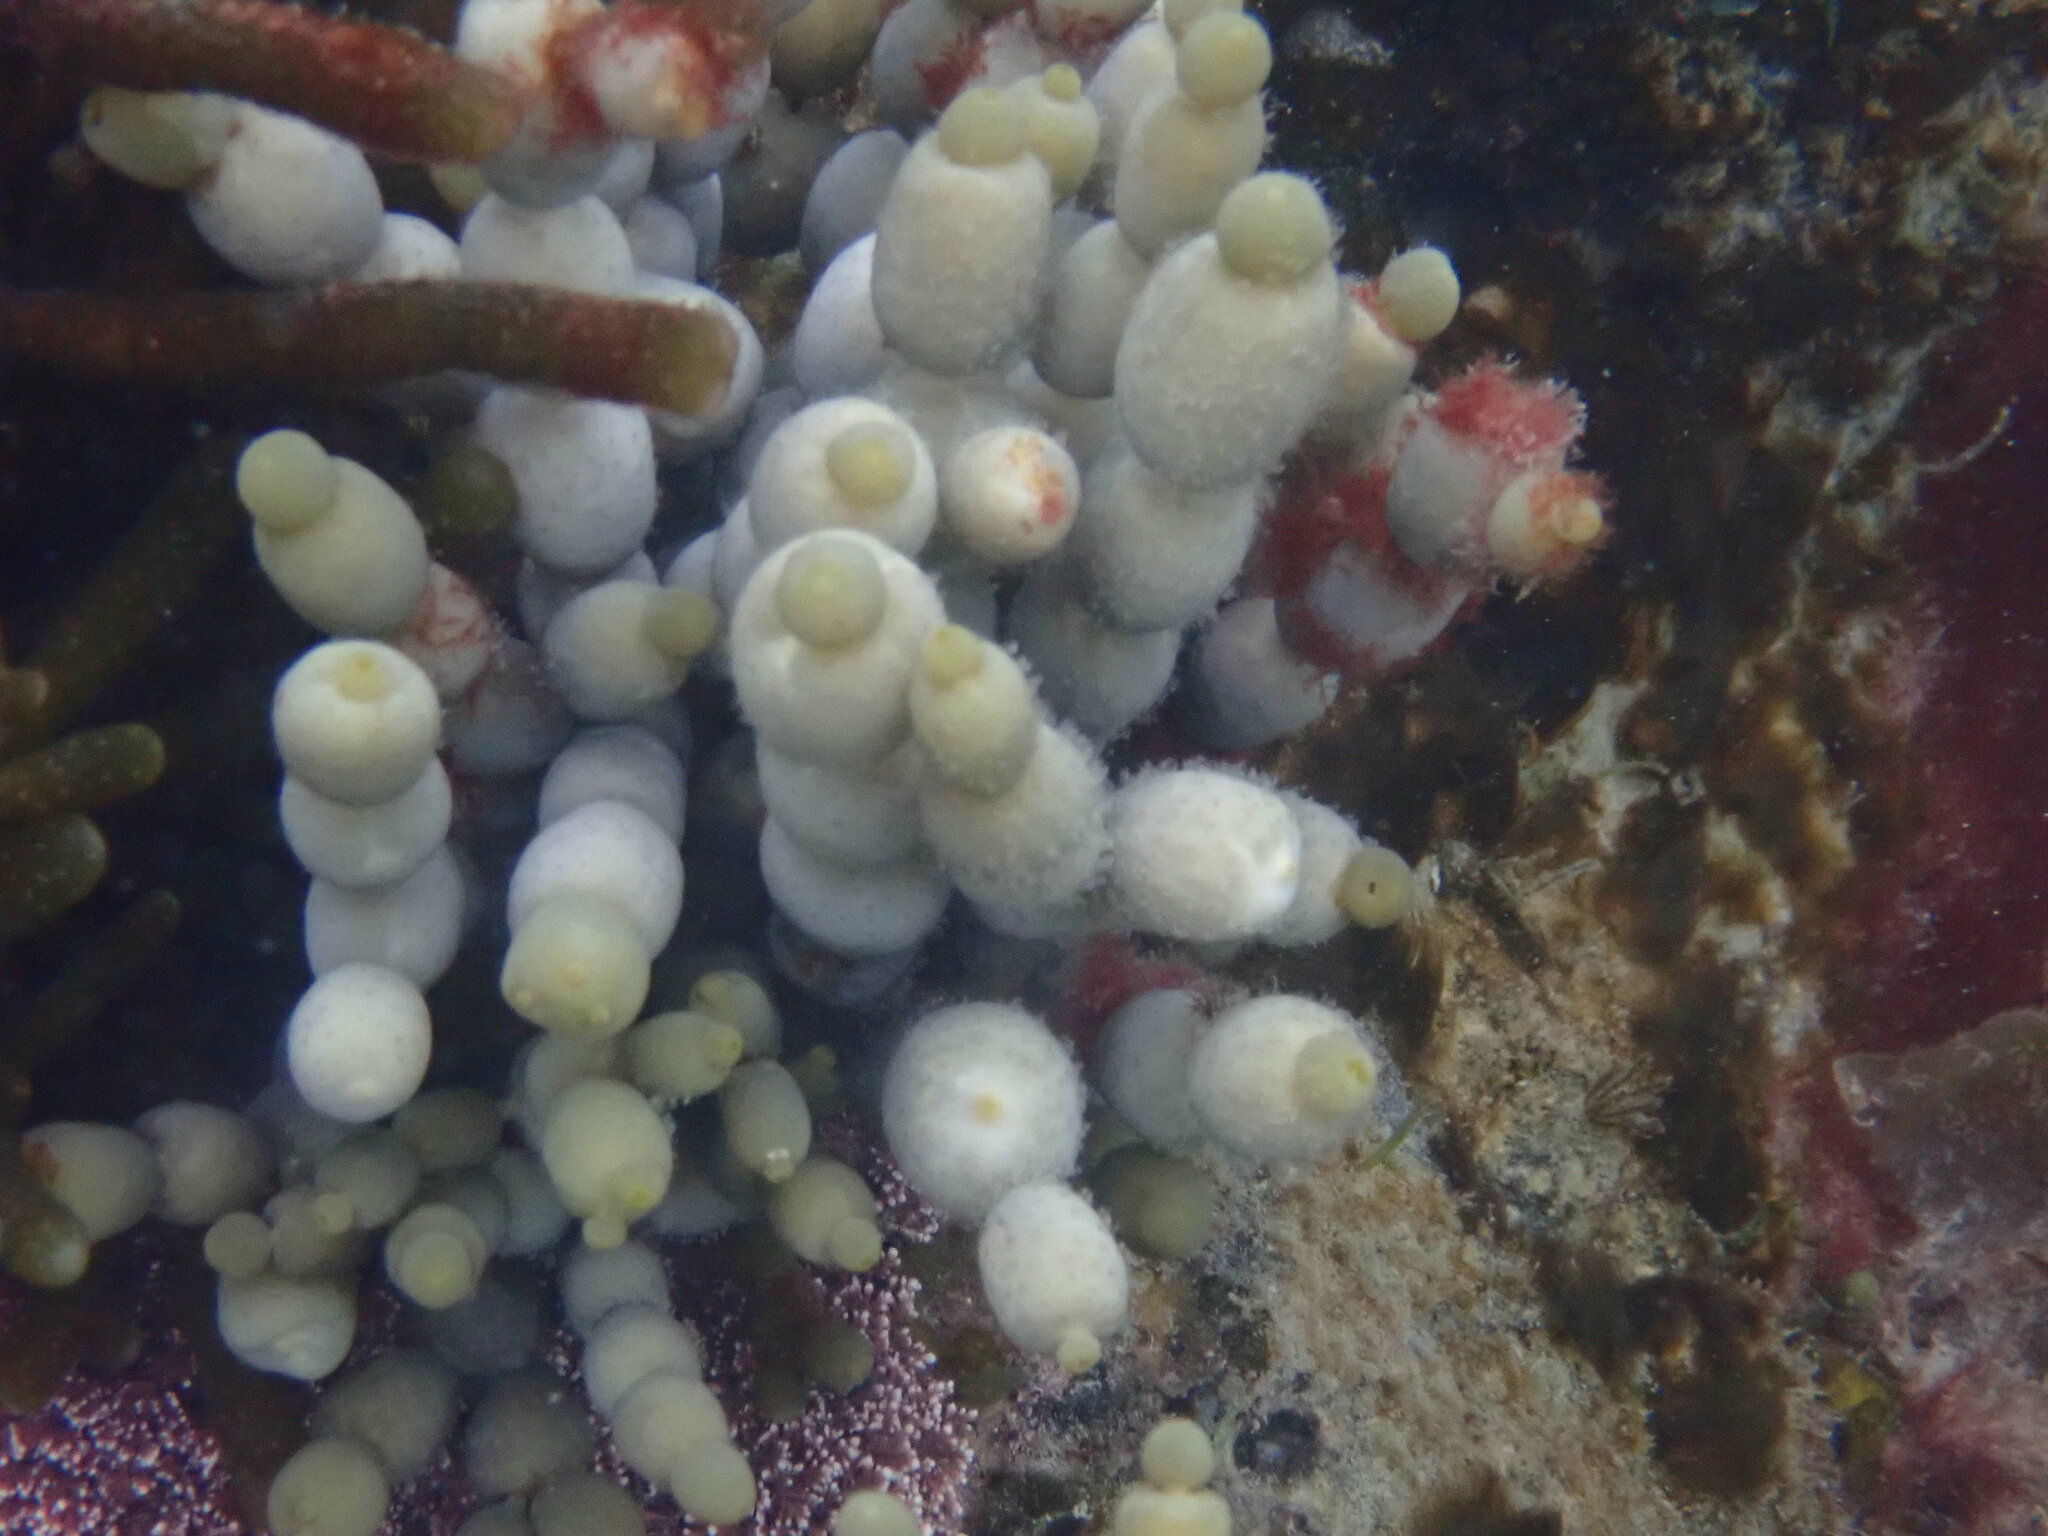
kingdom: Chromista
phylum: Ochrophyta
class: Phaeophyceae
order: Fucales
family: Hormosiraceae
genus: Hormosira
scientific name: Hormosira banksii
